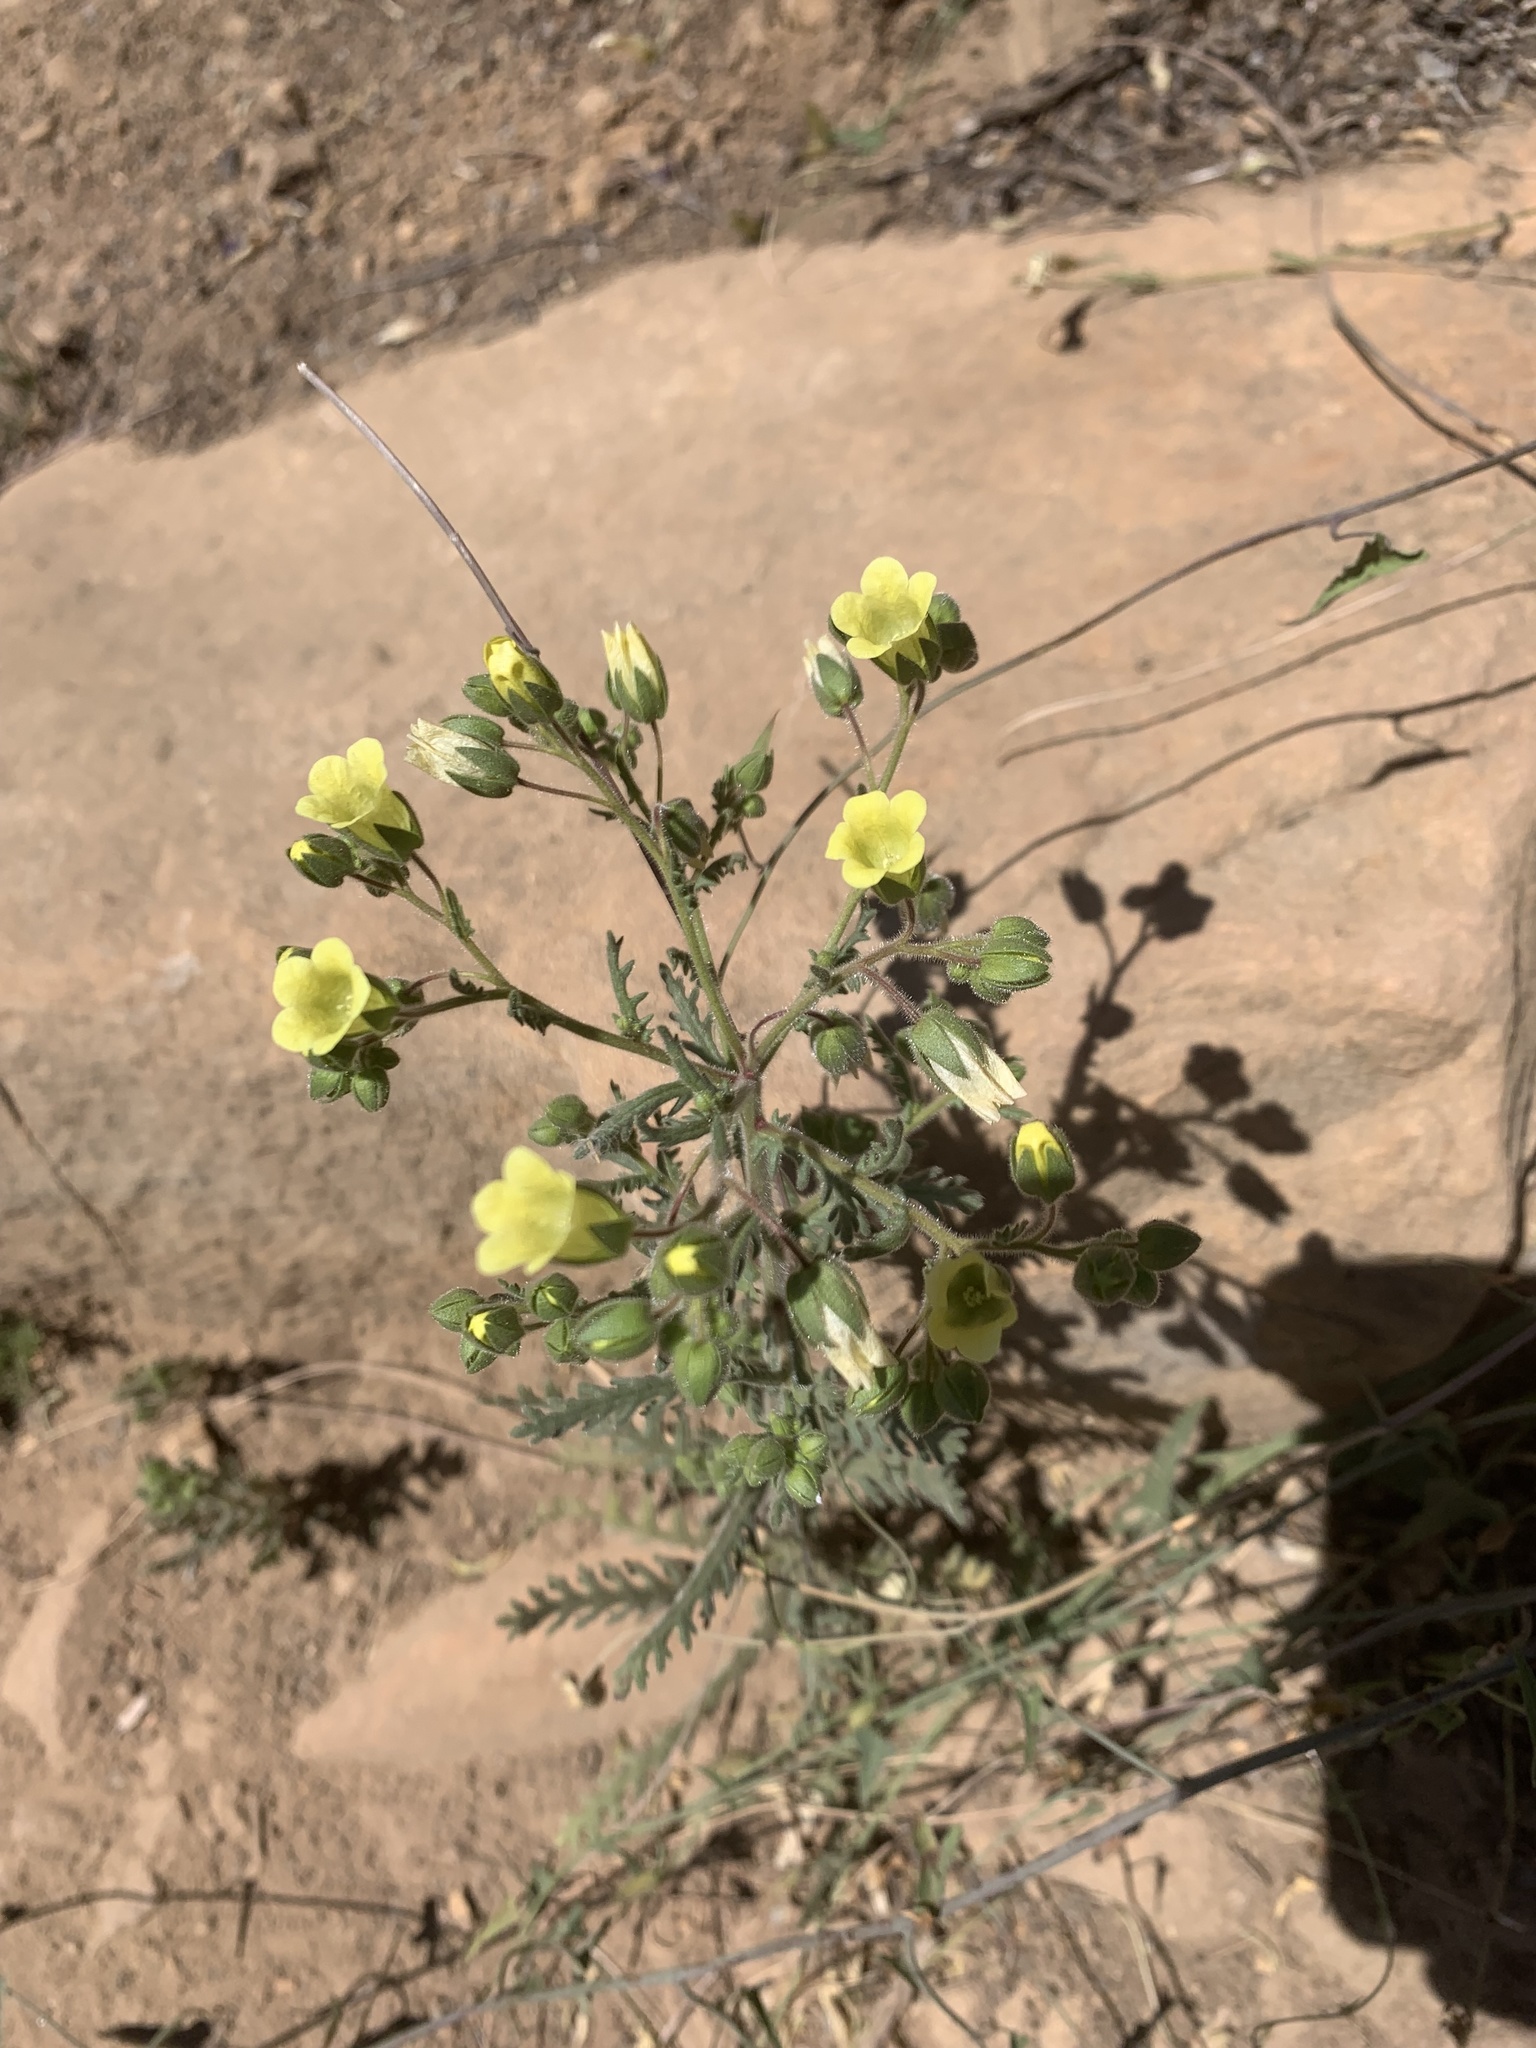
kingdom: Plantae
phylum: Tracheophyta
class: Magnoliopsida
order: Boraginales
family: Hydrophyllaceae
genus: Emmenanthe
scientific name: Emmenanthe penduliflora
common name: Whispering-bells
